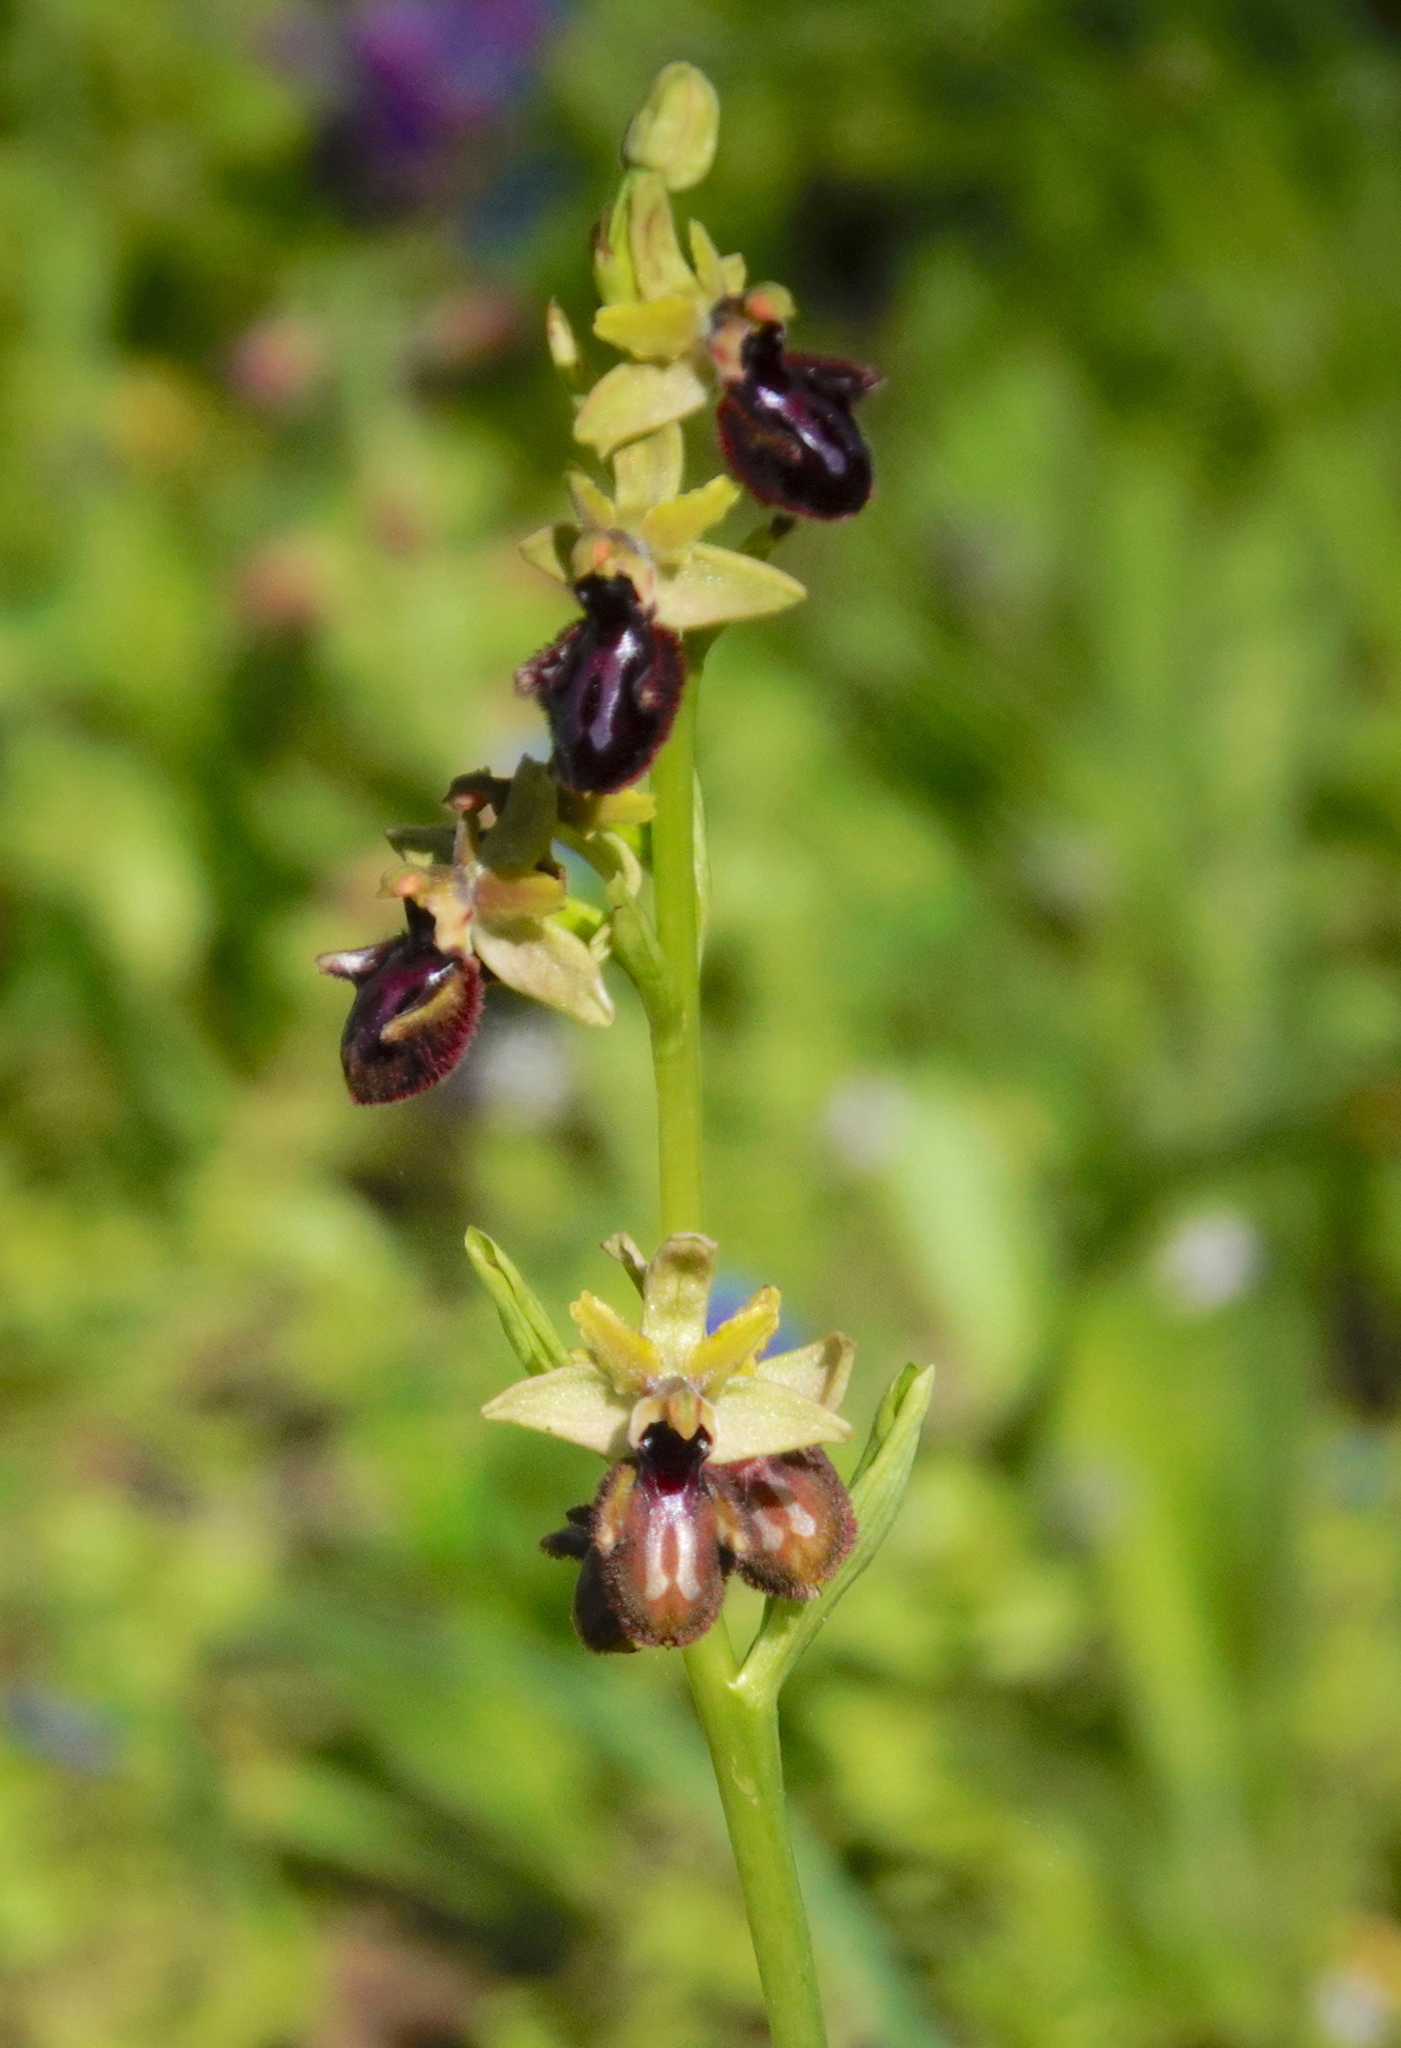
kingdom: Plantae
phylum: Tracheophyta
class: Liliopsida
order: Asparagales
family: Orchidaceae
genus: Ophrys
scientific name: Ophrys sphegodes
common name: Early spider-orchid
